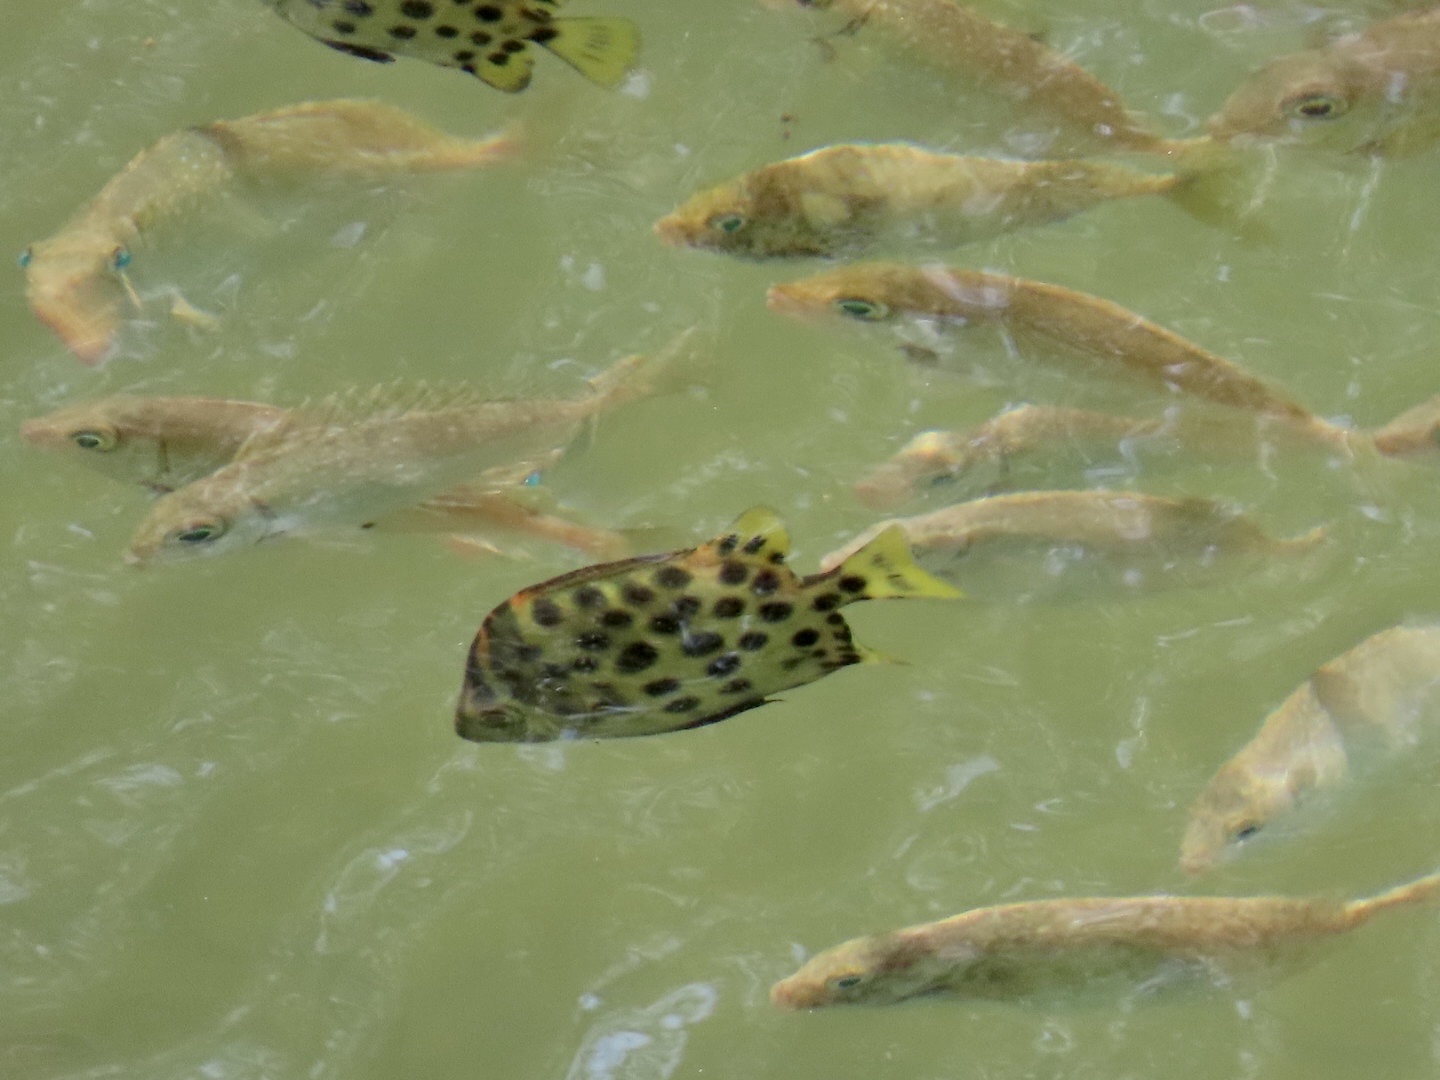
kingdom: Animalia
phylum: Chordata
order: Perciformes
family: Scatophagidae
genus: Scatophagus
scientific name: Scatophagus argus
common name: Spotted scat
